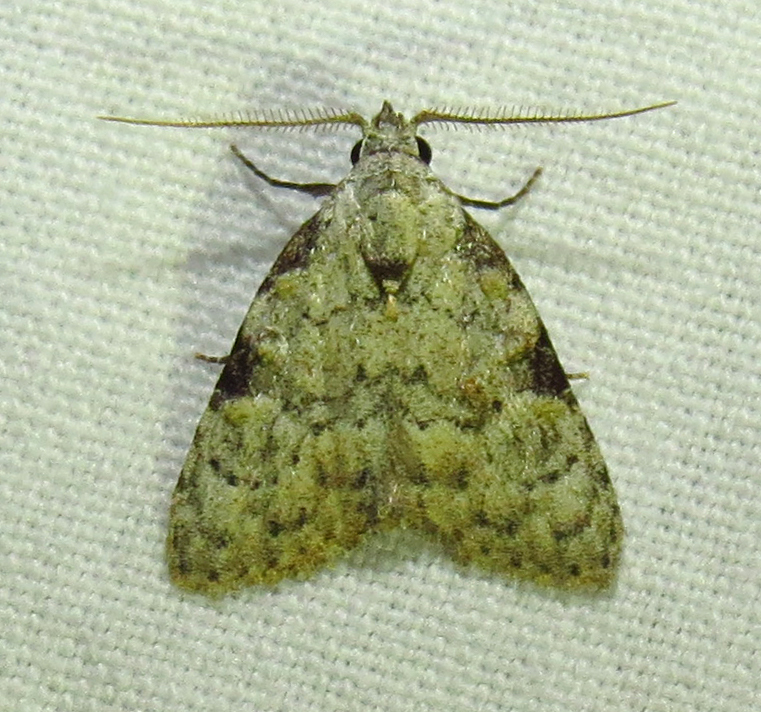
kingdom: Animalia
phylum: Arthropoda
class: Insecta
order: Lepidoptera
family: Nolidae
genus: Meganola
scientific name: Meganola minuscula
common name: Confused meganola moth
